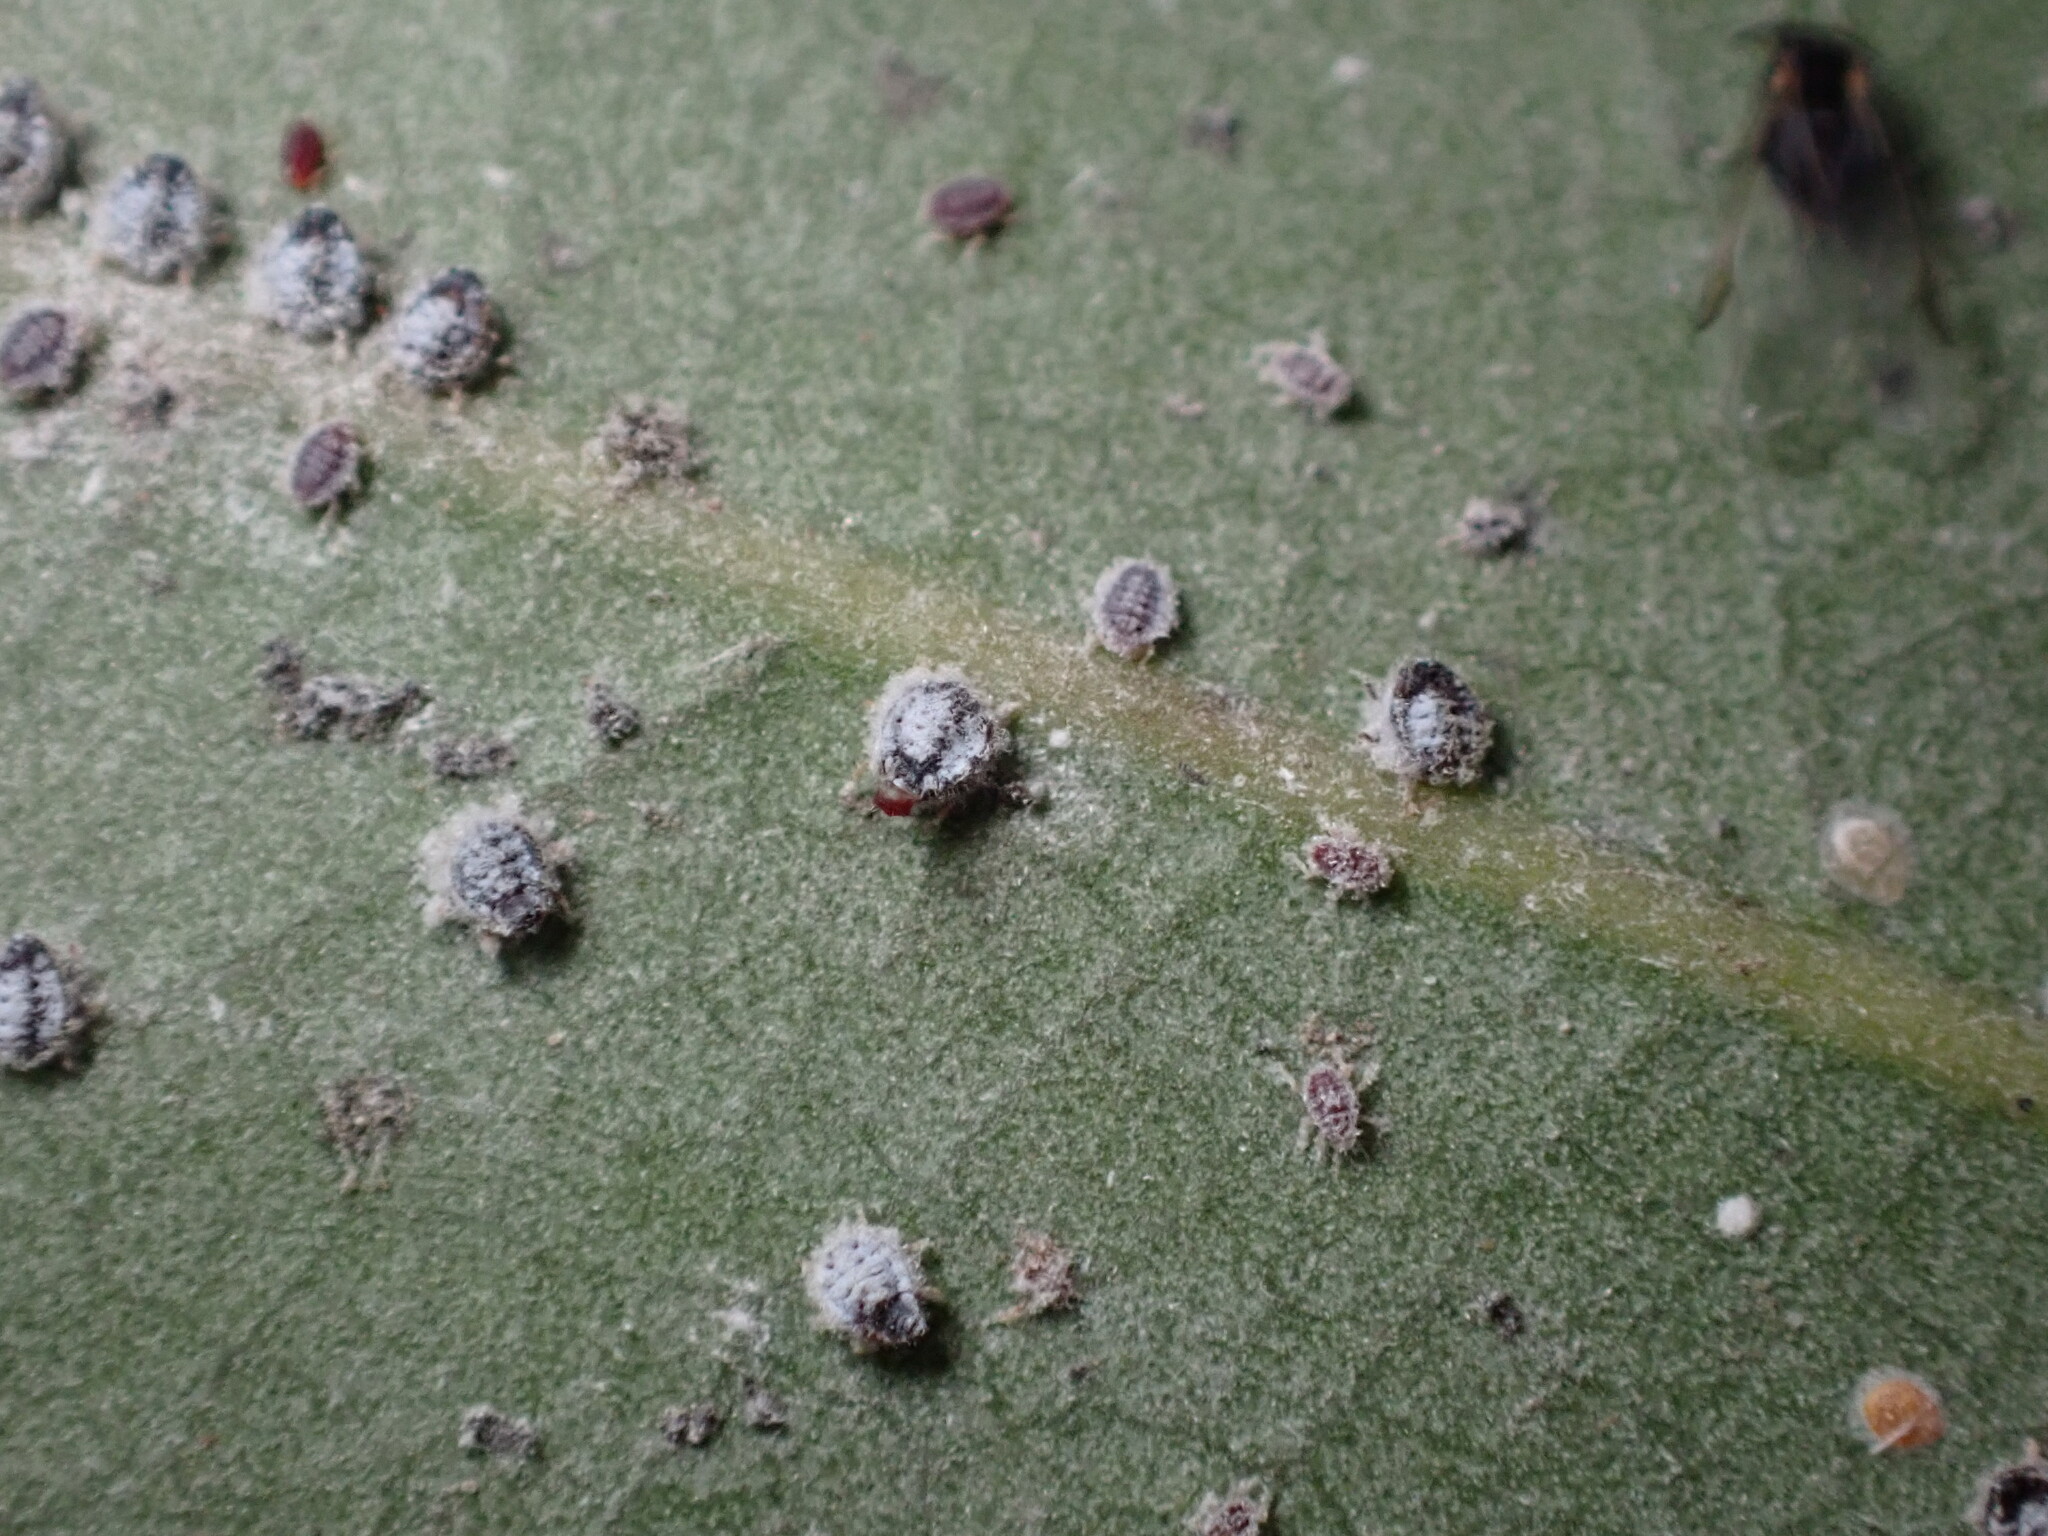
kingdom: Animalia
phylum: Arthropoda
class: Insecta
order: Hemiptera
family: Aphididae
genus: Euthoracaphis
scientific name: Euthoracaphis umbellulariae
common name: Aphid
